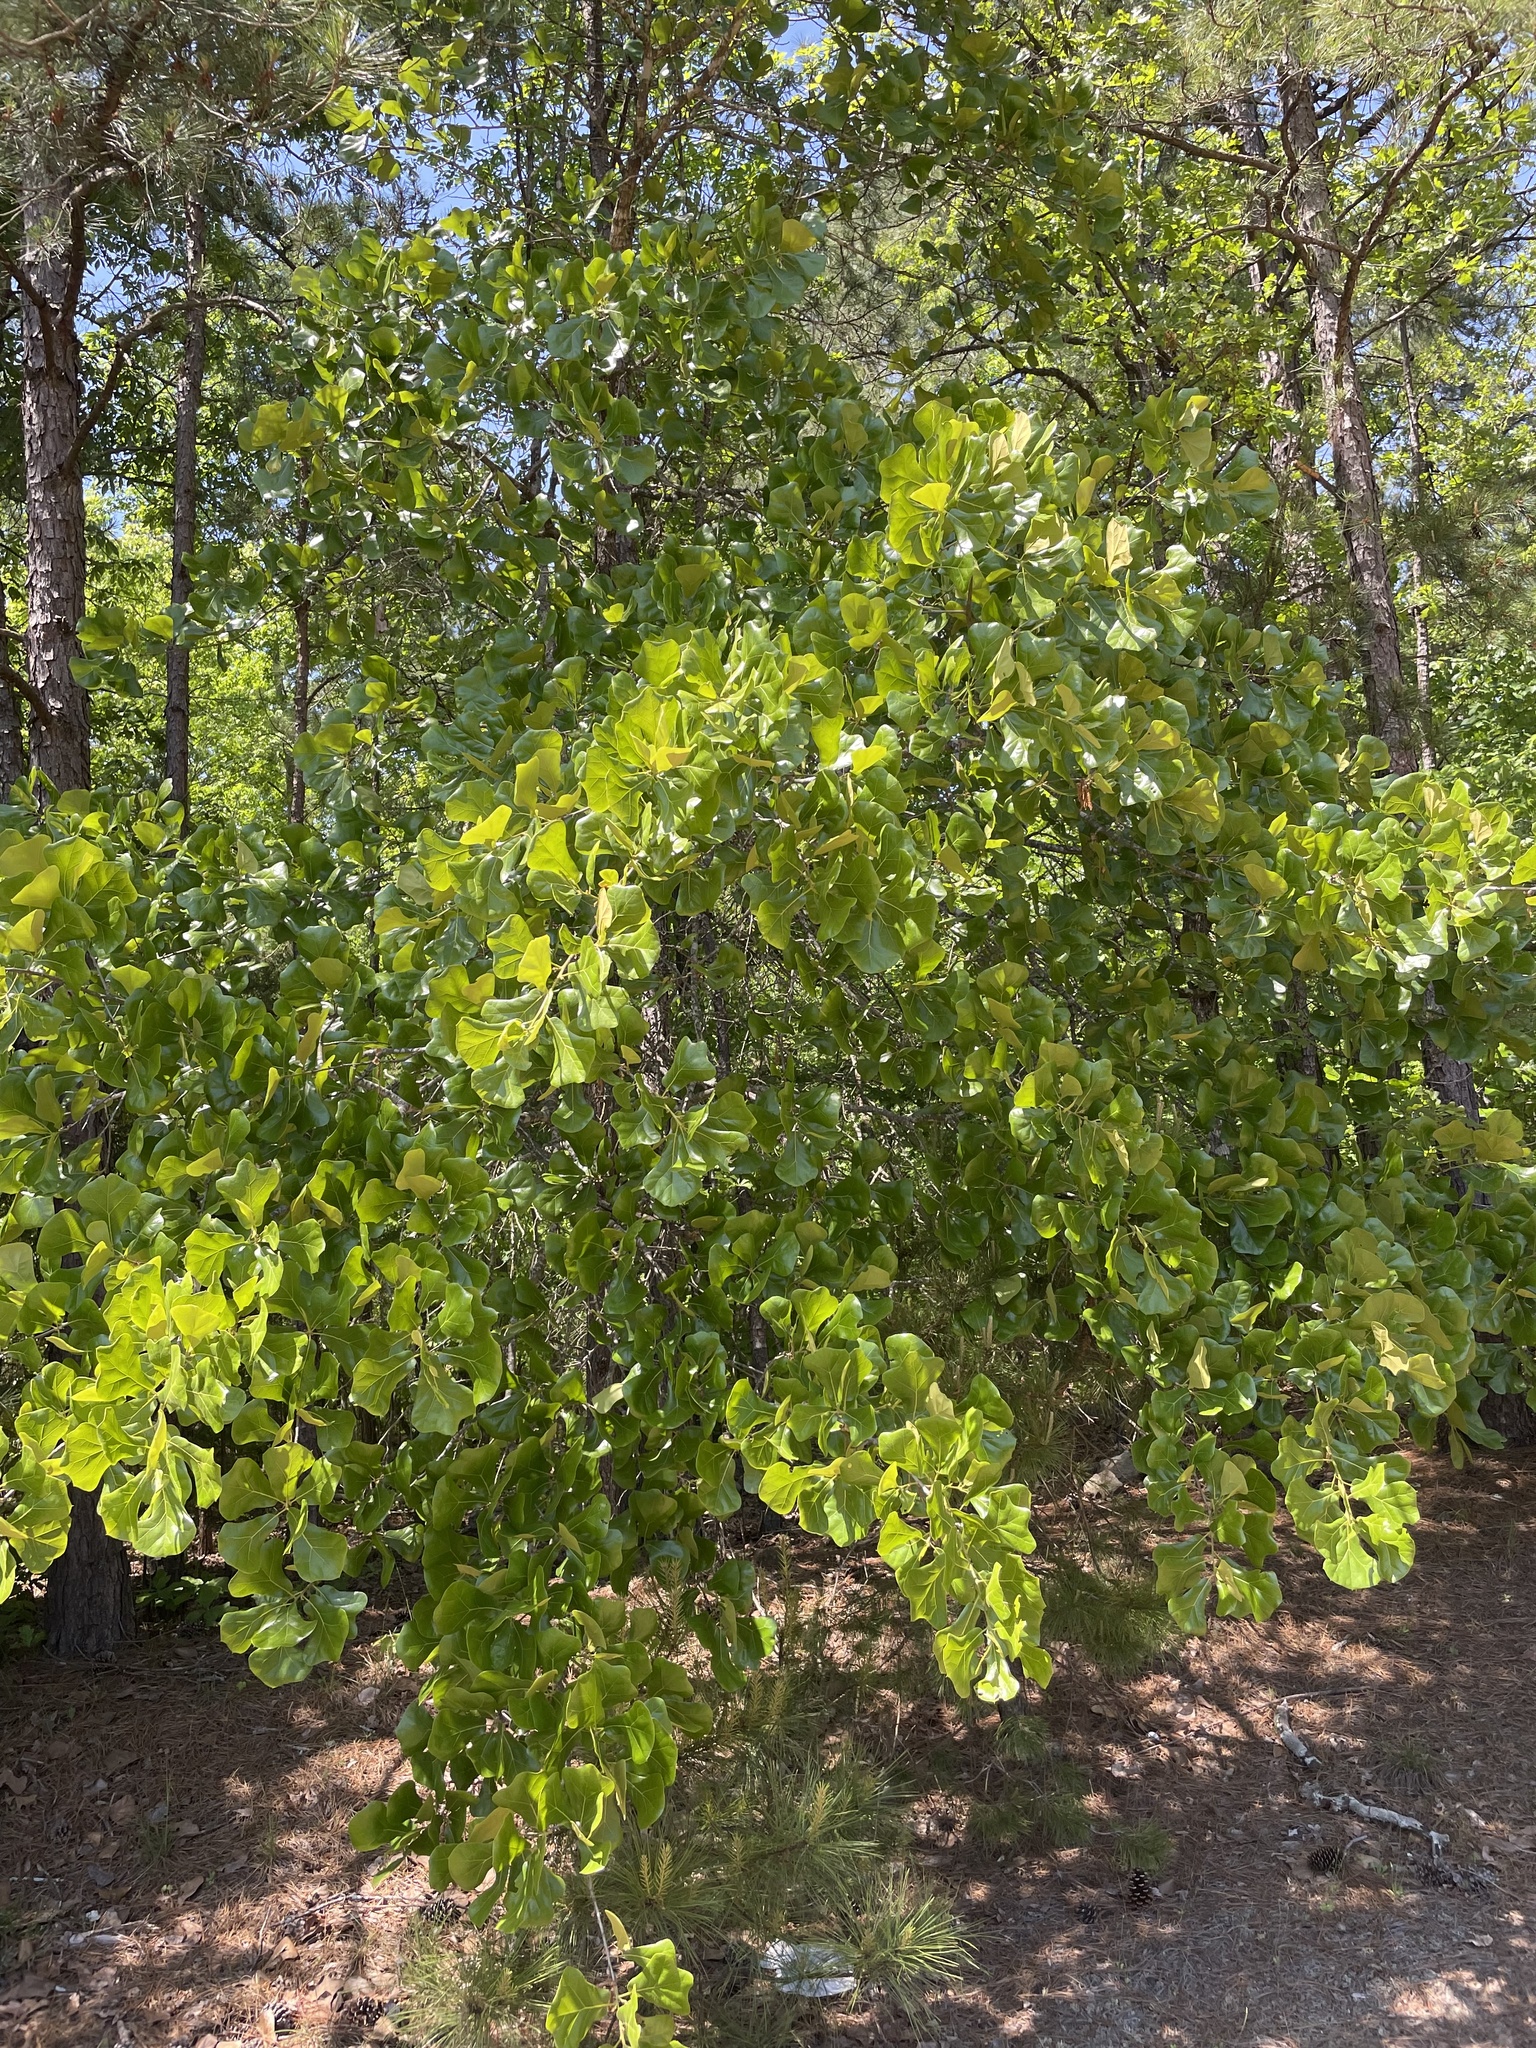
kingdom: Plantae
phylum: Tracheophyta
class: Magnoliopsida
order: Fagales
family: Fagaceae
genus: Quercus
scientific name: Quercus marilandica
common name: Blackjack oak
